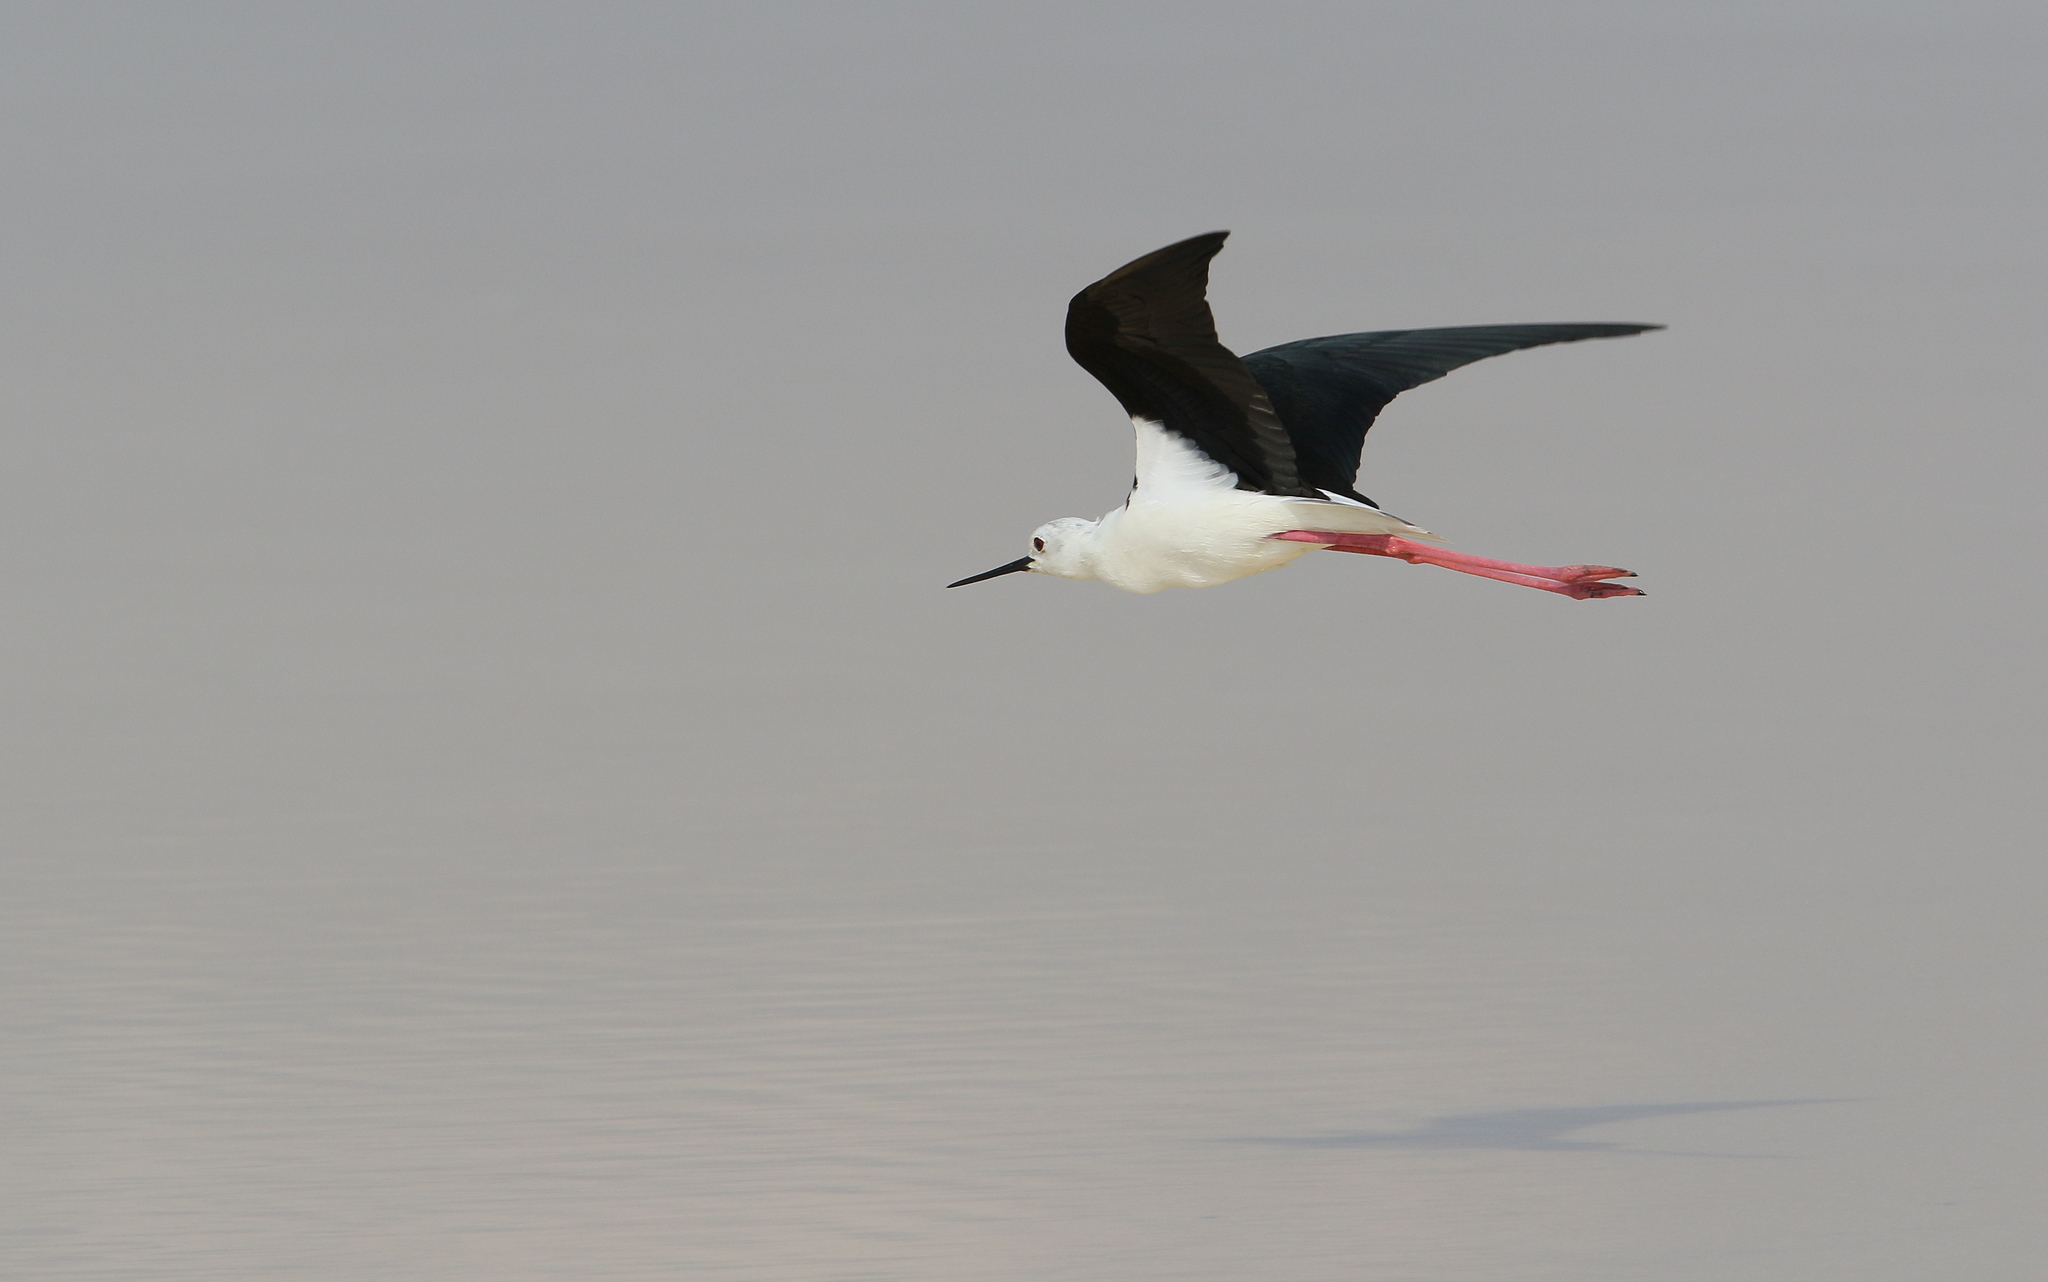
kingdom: Animalia
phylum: Chordata
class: Aves
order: Charadriiformes
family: Recurvirostridae
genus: Himantopus
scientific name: Himantopus himantopus
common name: Black-winged stilt
